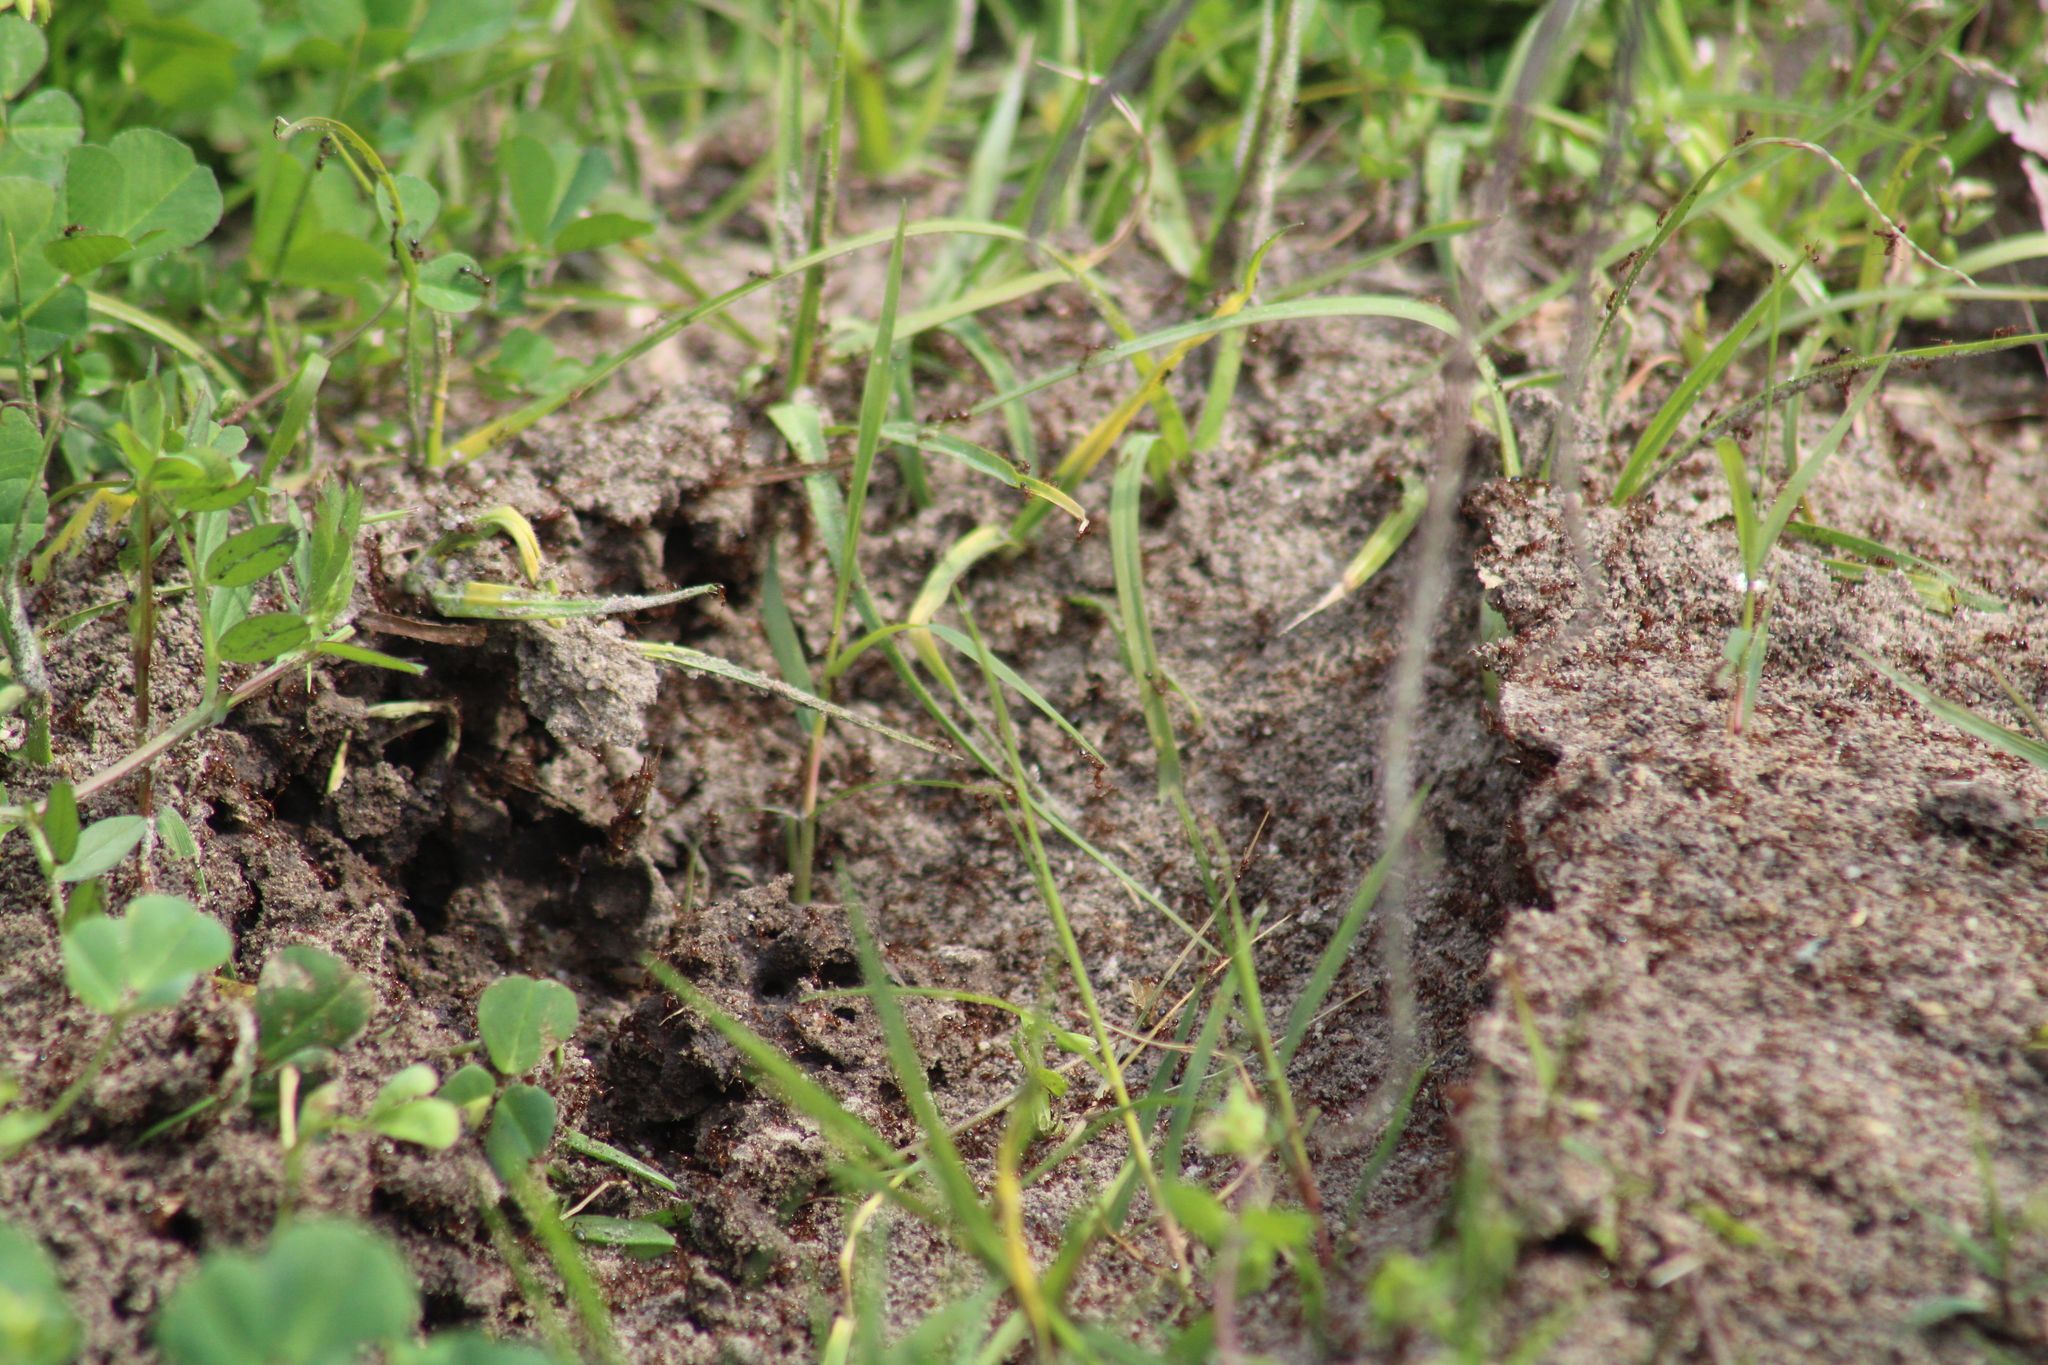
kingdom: Animalia
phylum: Arthropoda
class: Insecta
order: Hymenoptera
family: Formicidae
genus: Solenopsis
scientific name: Solenopsis invicta
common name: Red imported fire ant
